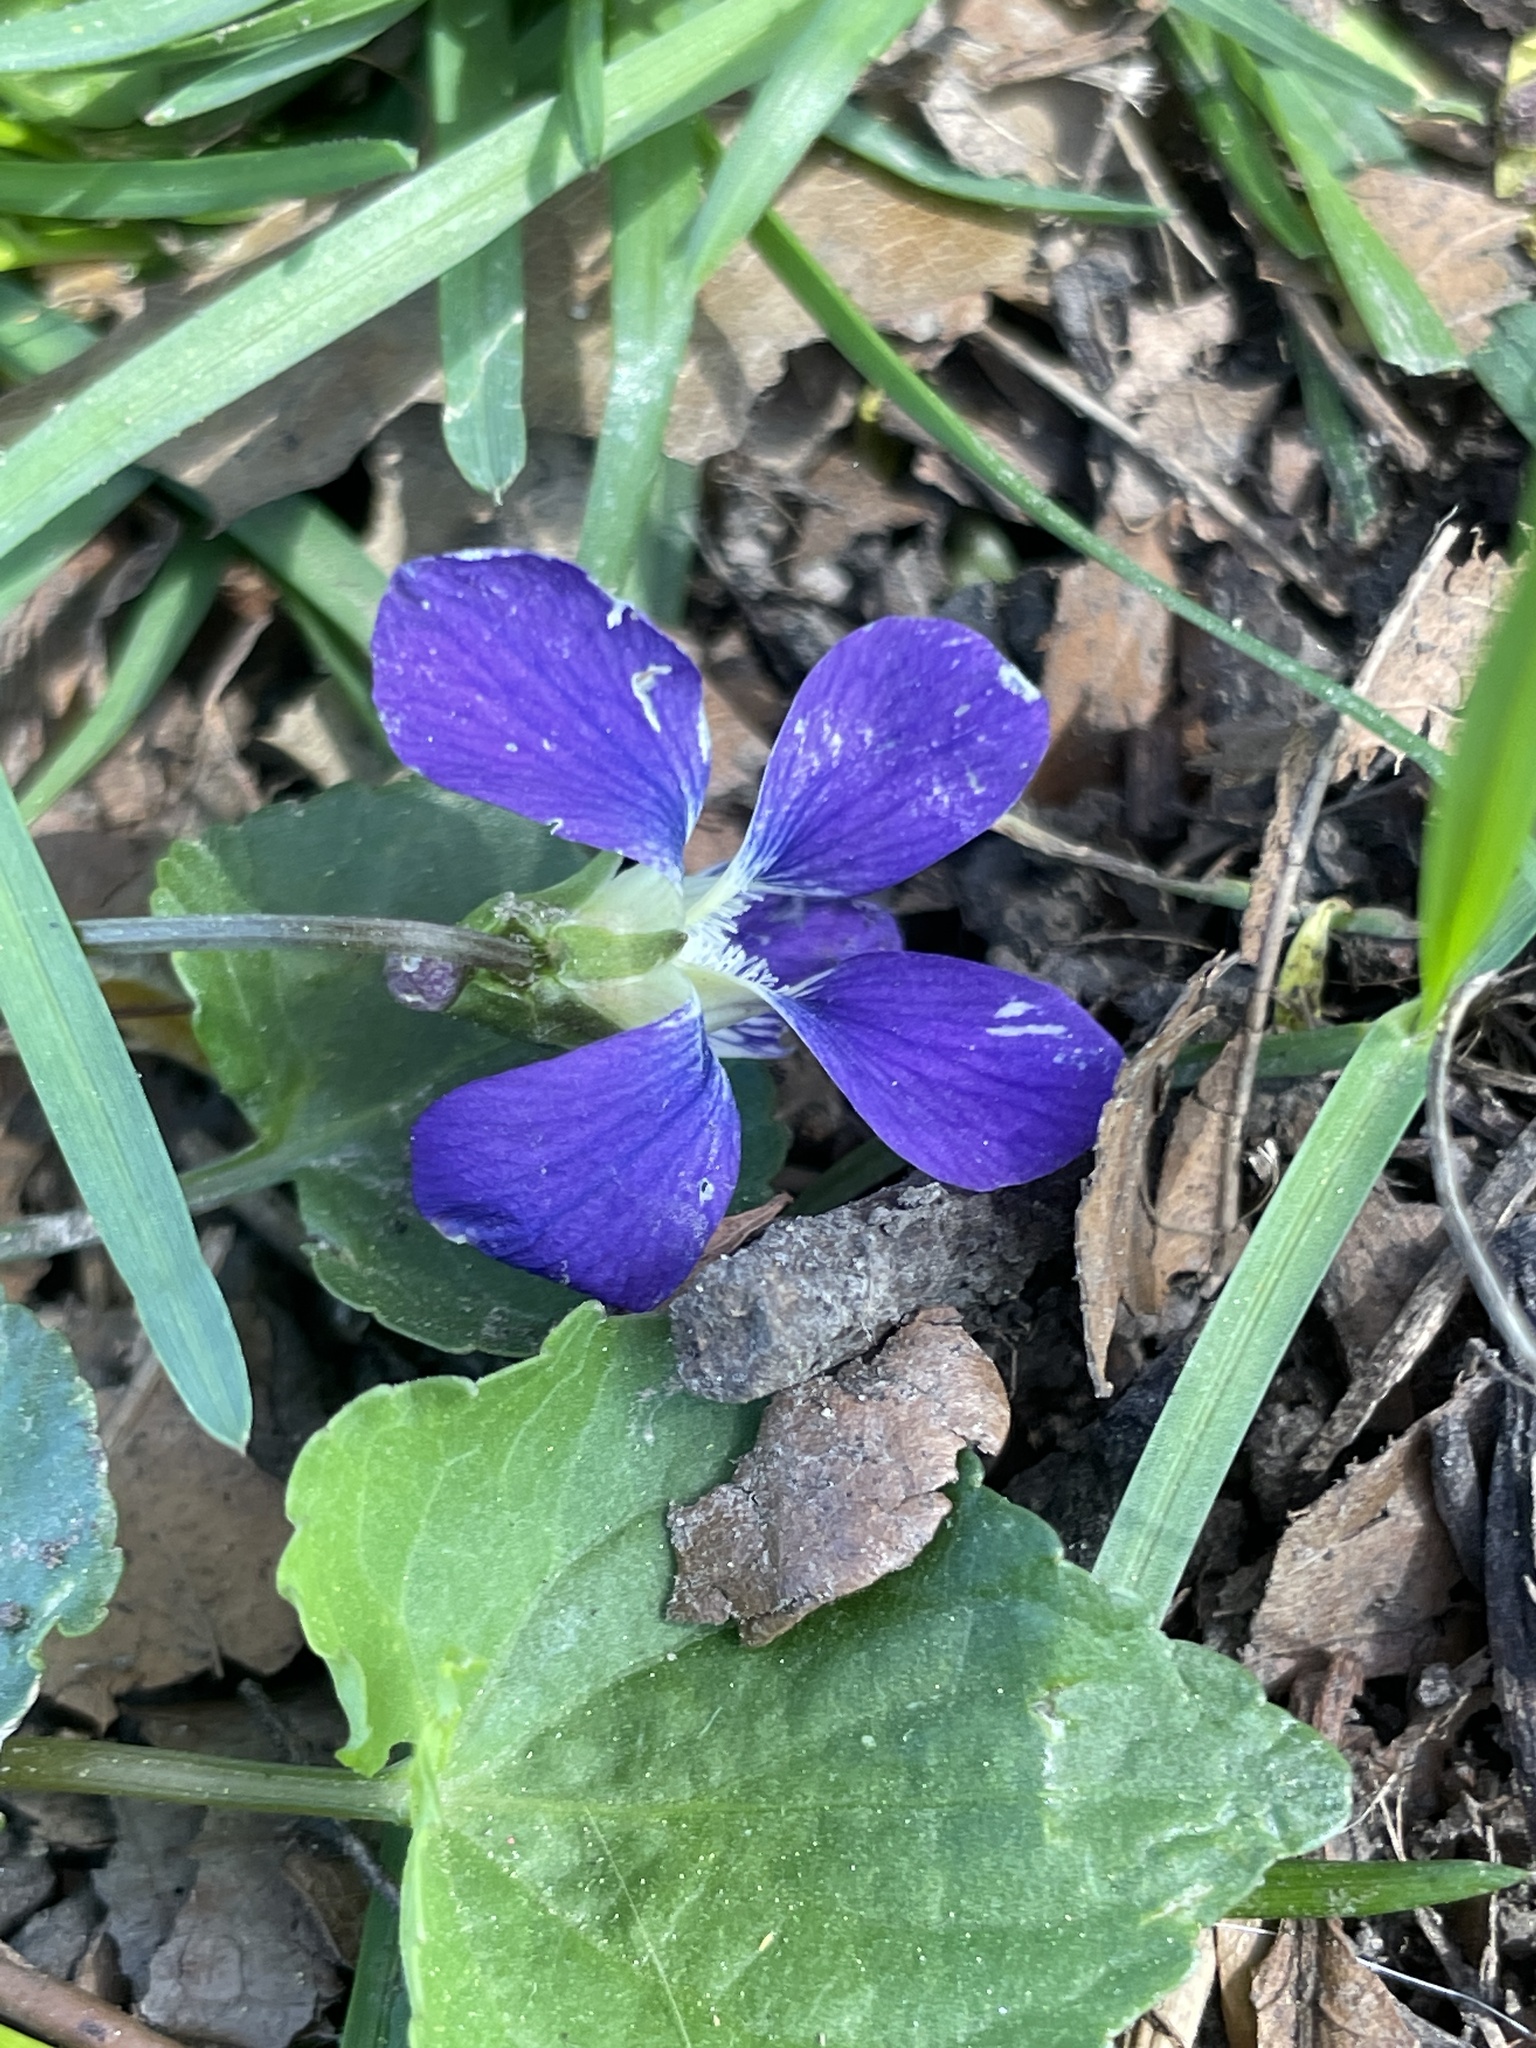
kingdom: Plantae
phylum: Tracheophyta
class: Magnoliopsida
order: Malpighiales
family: Violaceae
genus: Viola
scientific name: Viola sororia
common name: Dooryard violet
